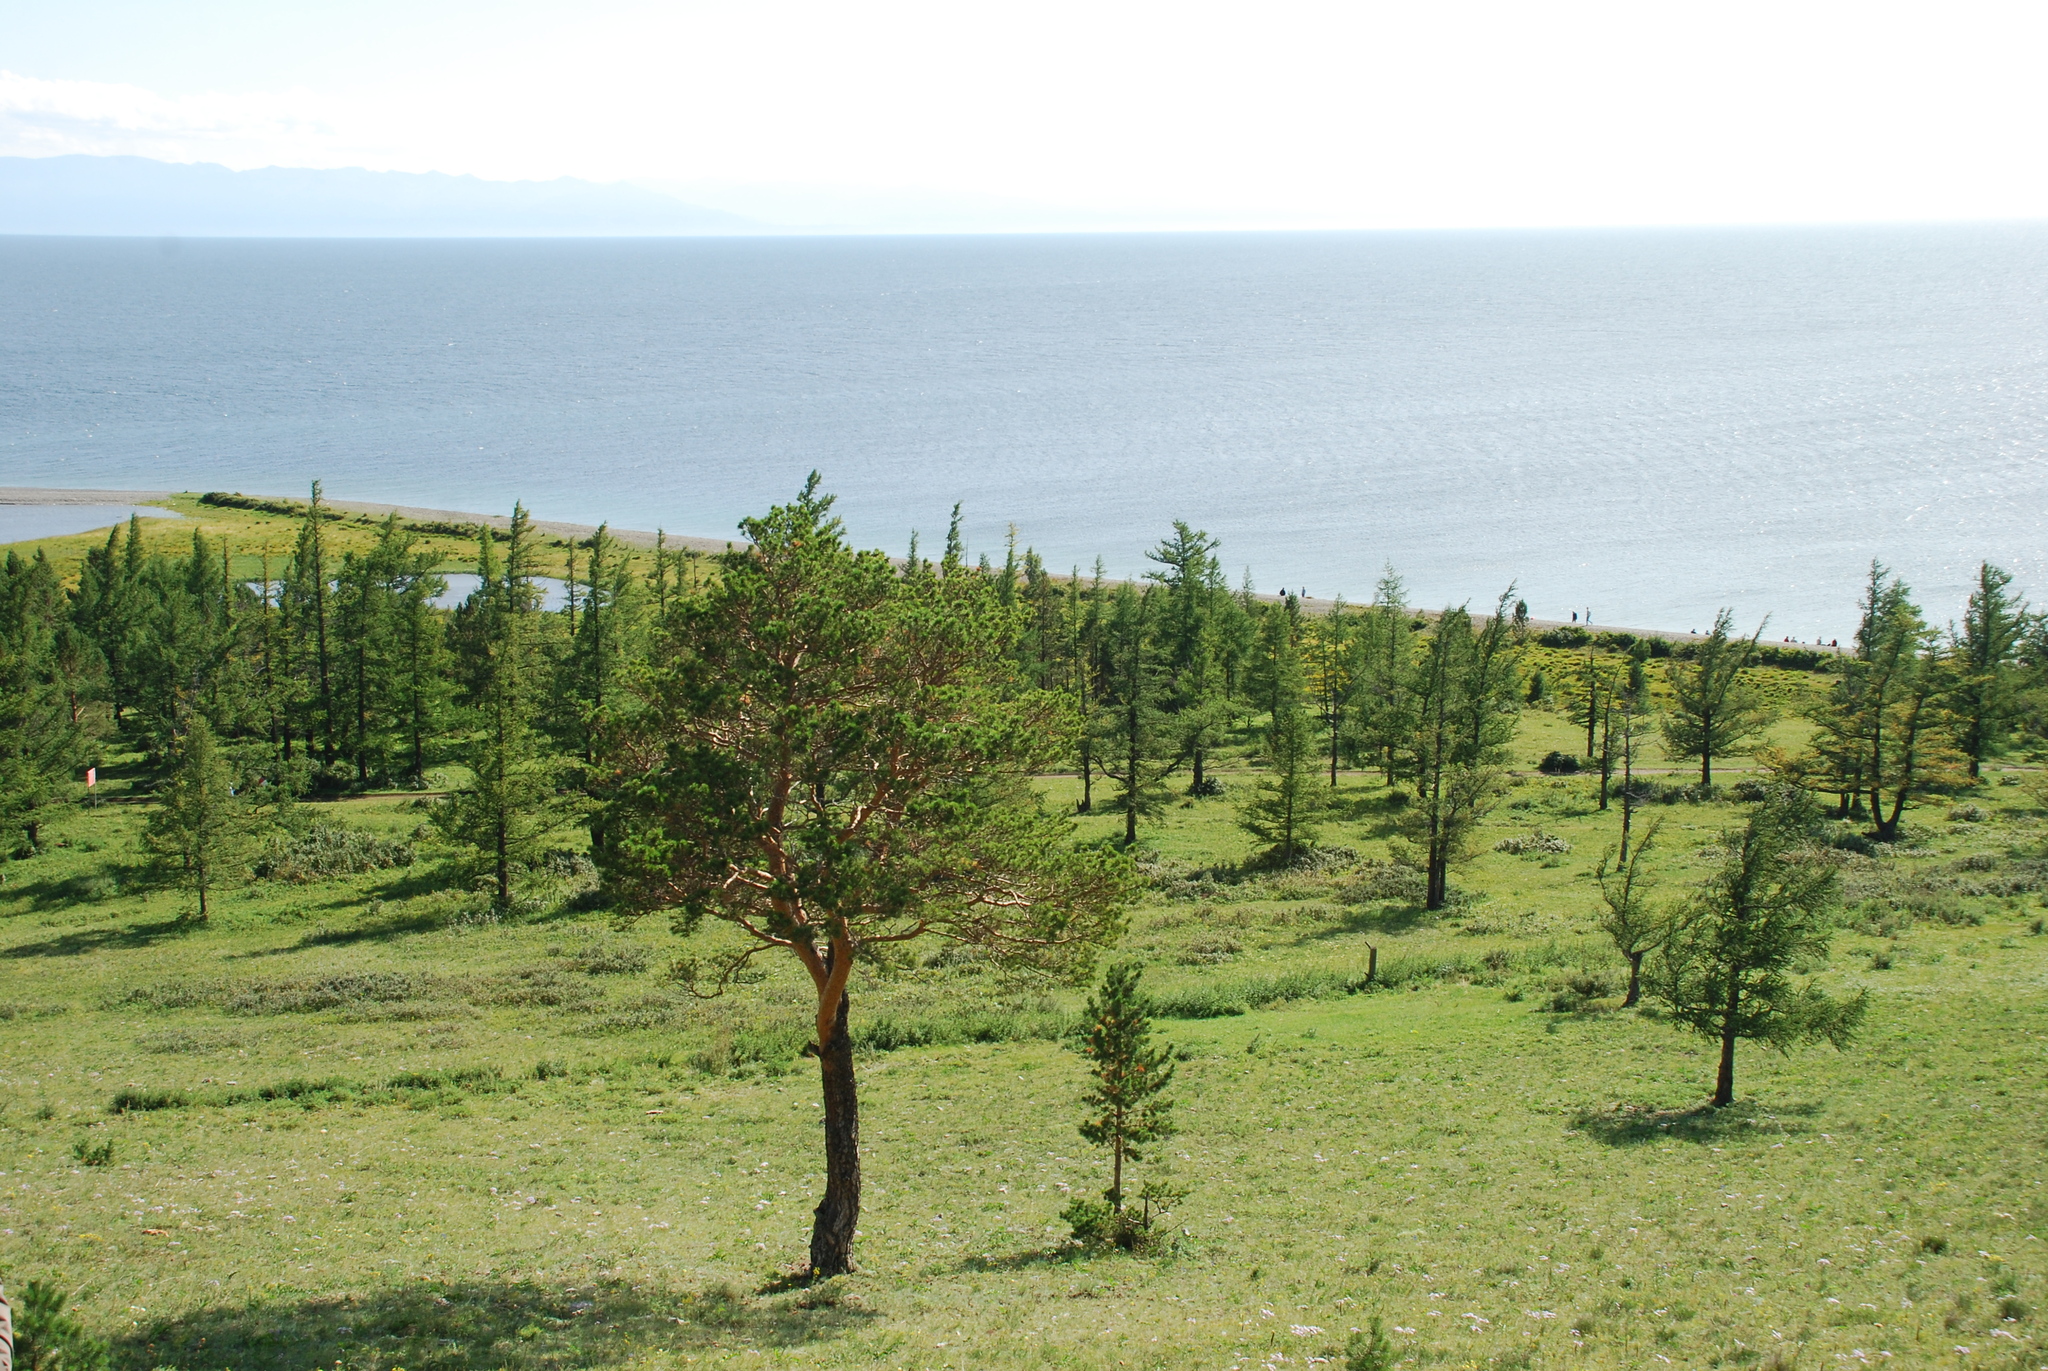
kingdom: Plantae
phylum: Tracheophyta
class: Pinopsida
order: Pinales
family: Pinaceae
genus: Pinus
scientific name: Pinus sylvestris
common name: Scots pine
